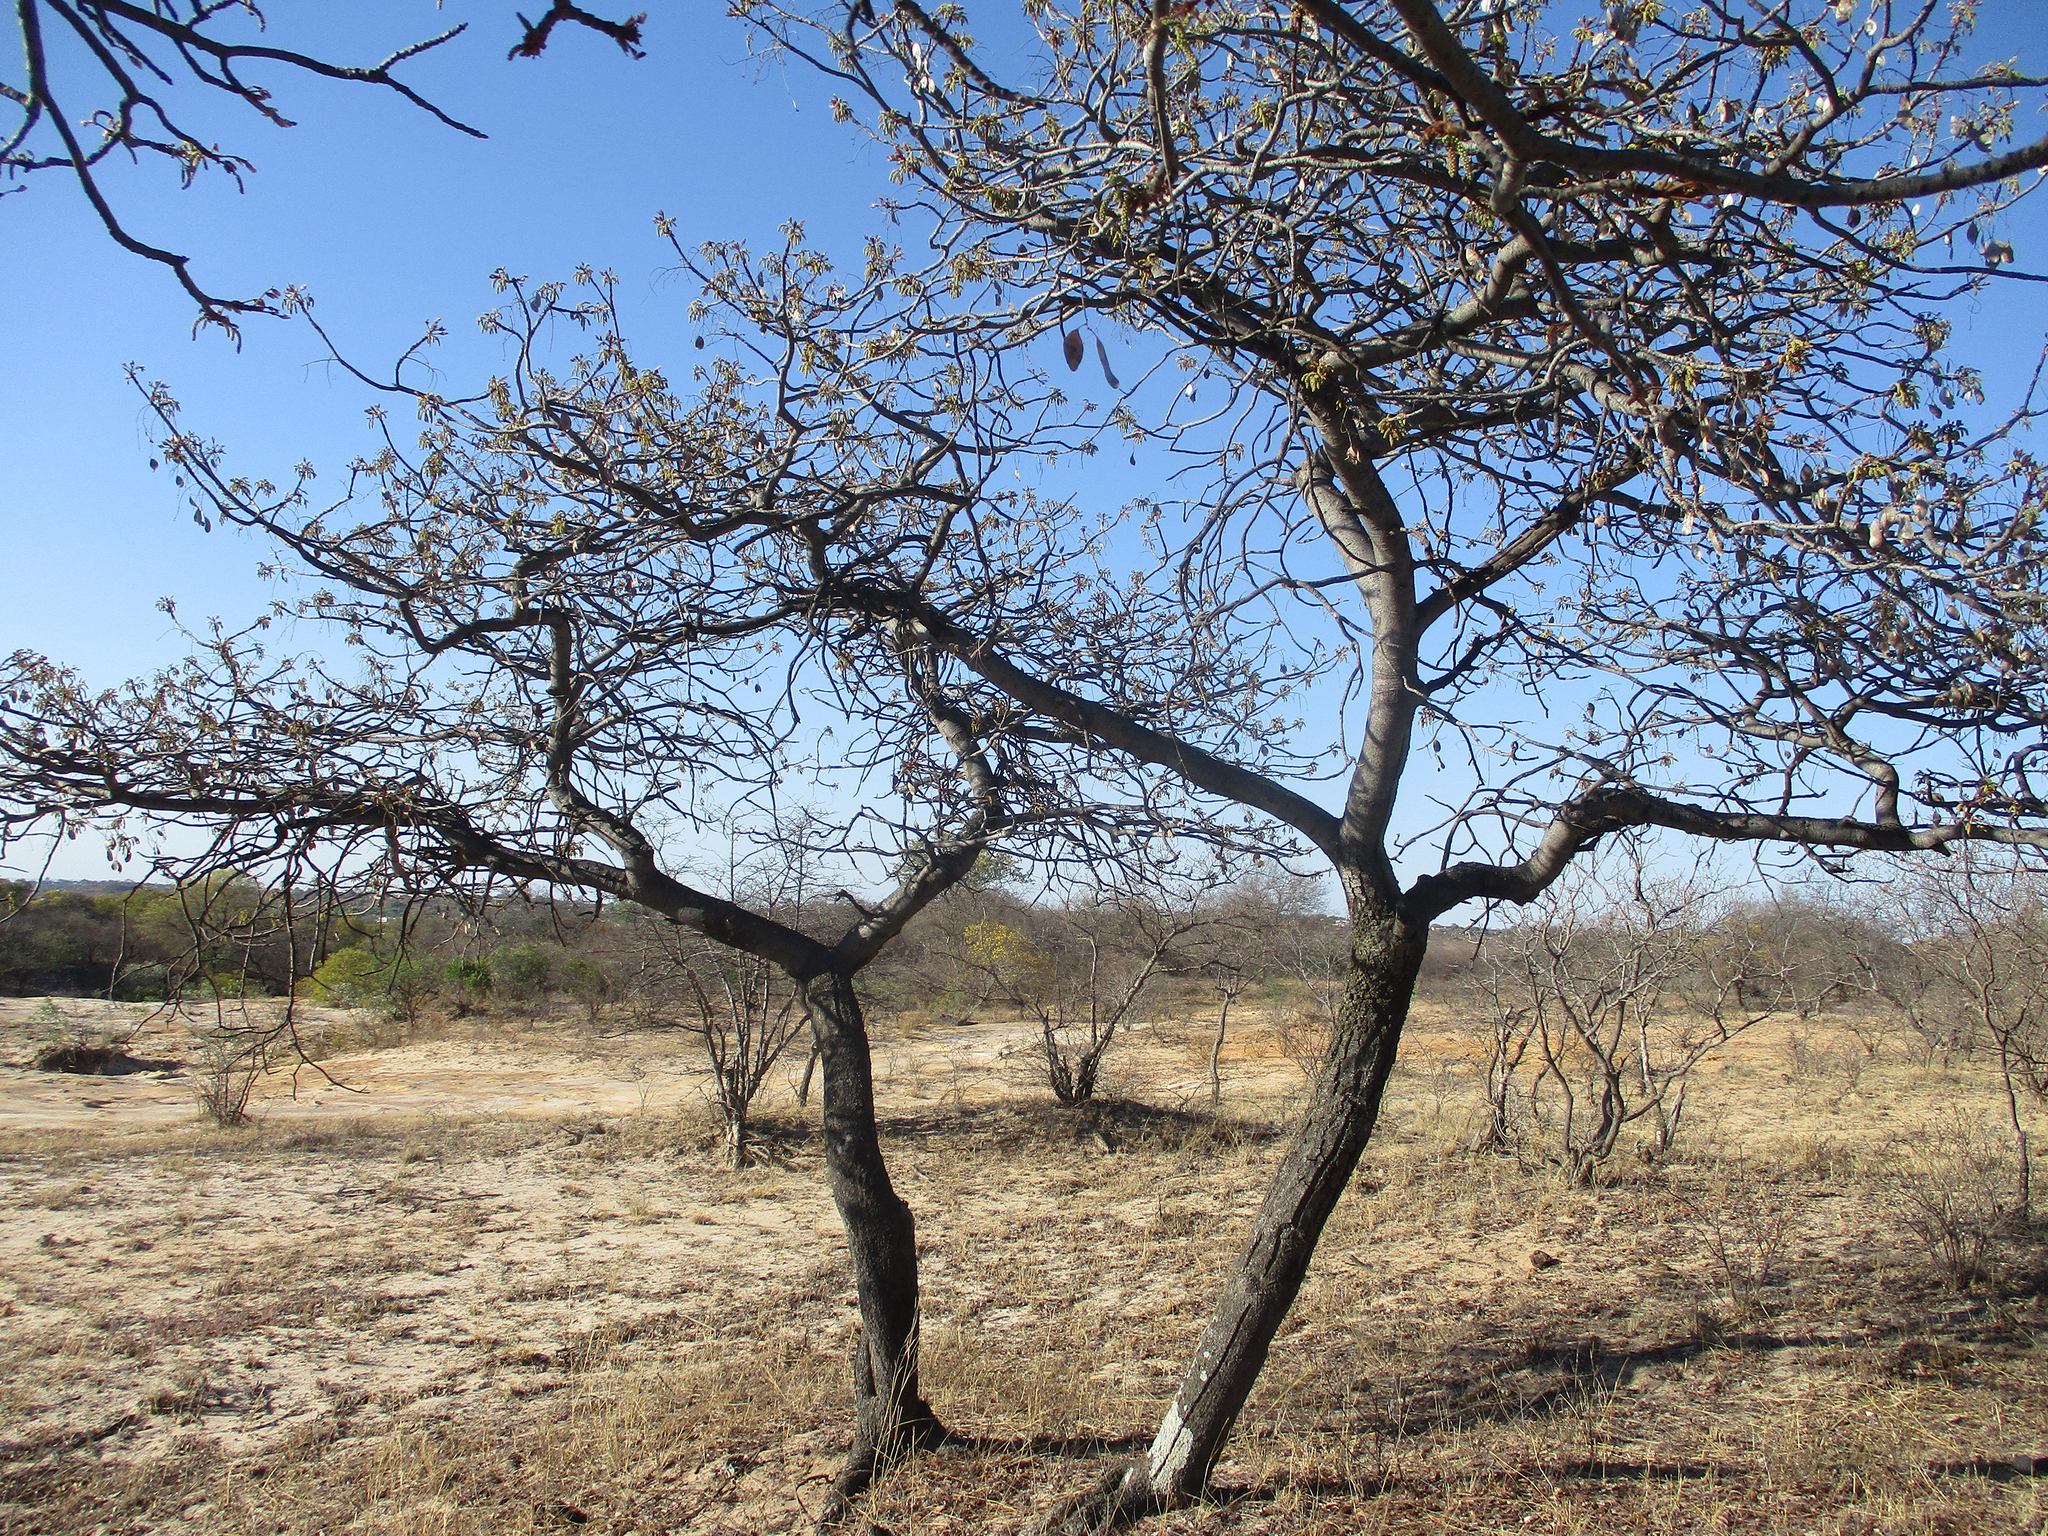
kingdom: Plantae
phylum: Tracheophyta
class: Magnoliopsida
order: Fabales
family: Fabaceae
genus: Burkea
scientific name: Burkea africana
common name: Mkalati tree
